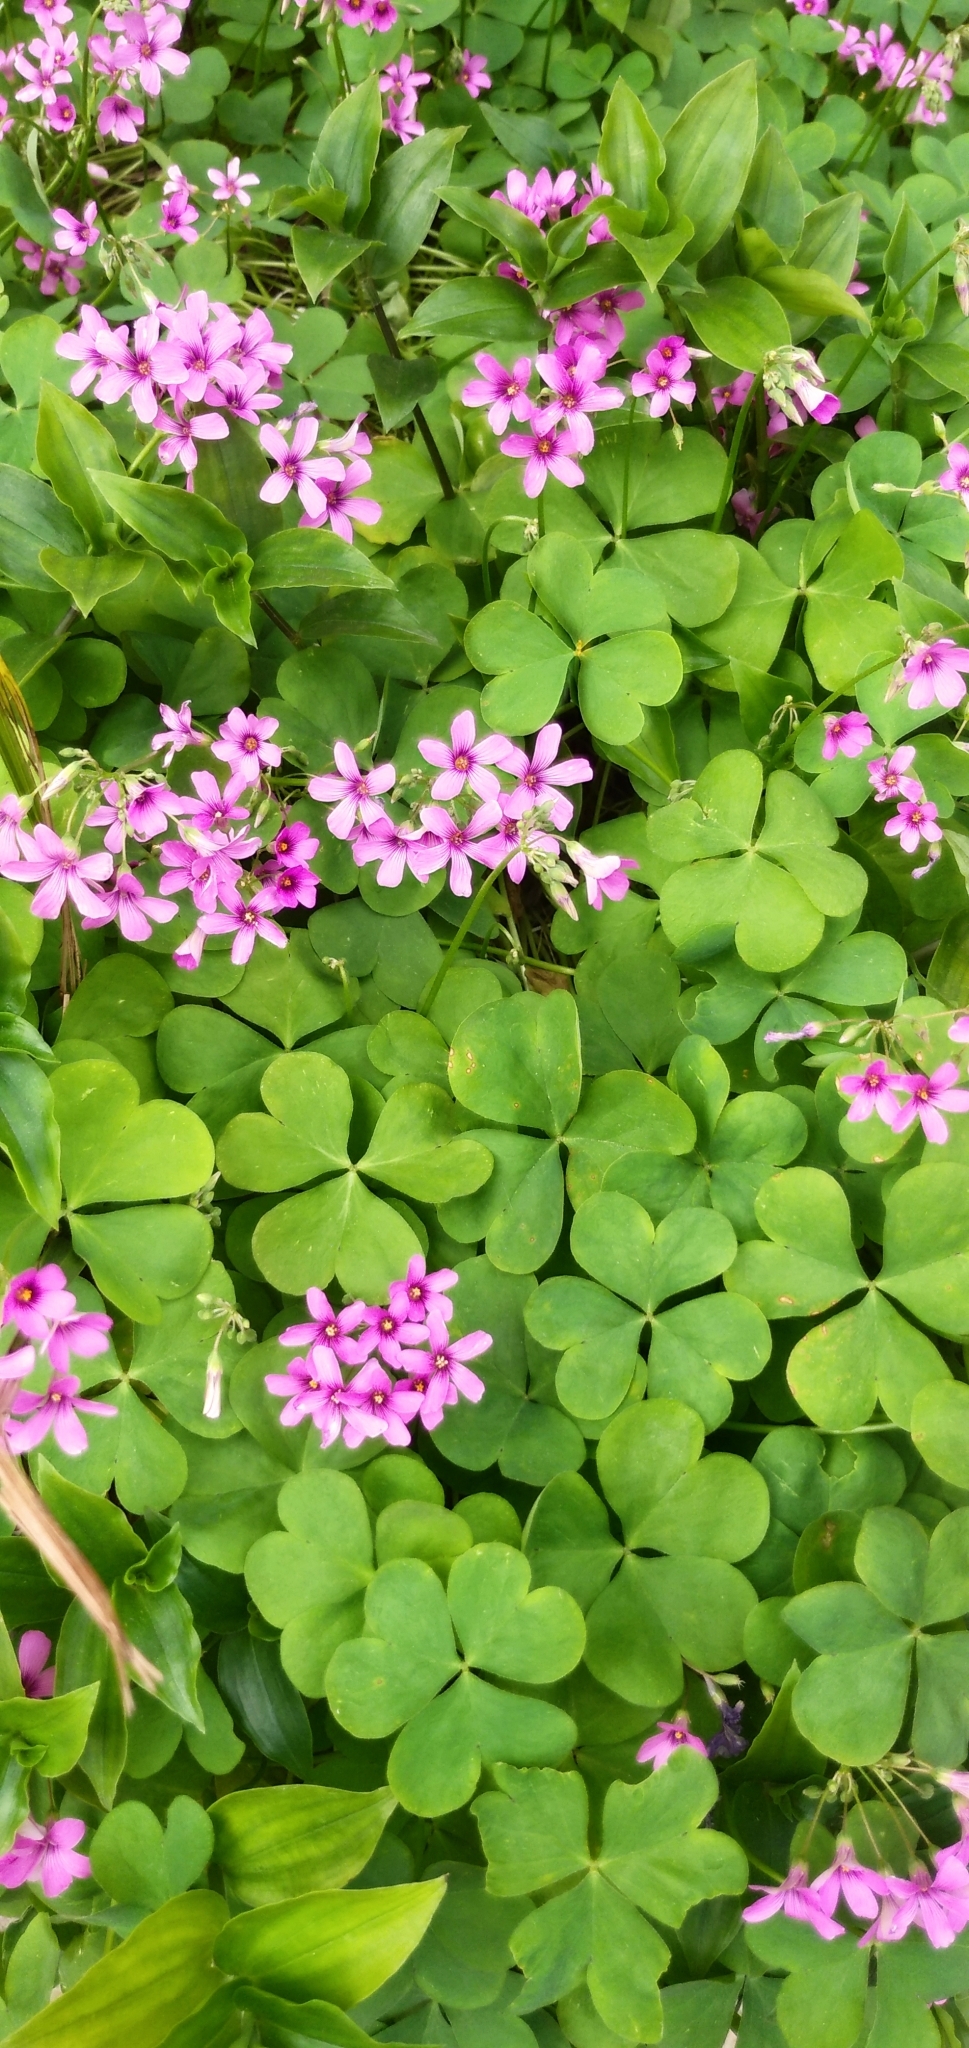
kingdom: Plantae
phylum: Tracheophyta
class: Magnoliopsida
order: Oxalidales
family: Oxalidaceae
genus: Oxalis
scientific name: Oxalis articulata
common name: Pink-sorrel
